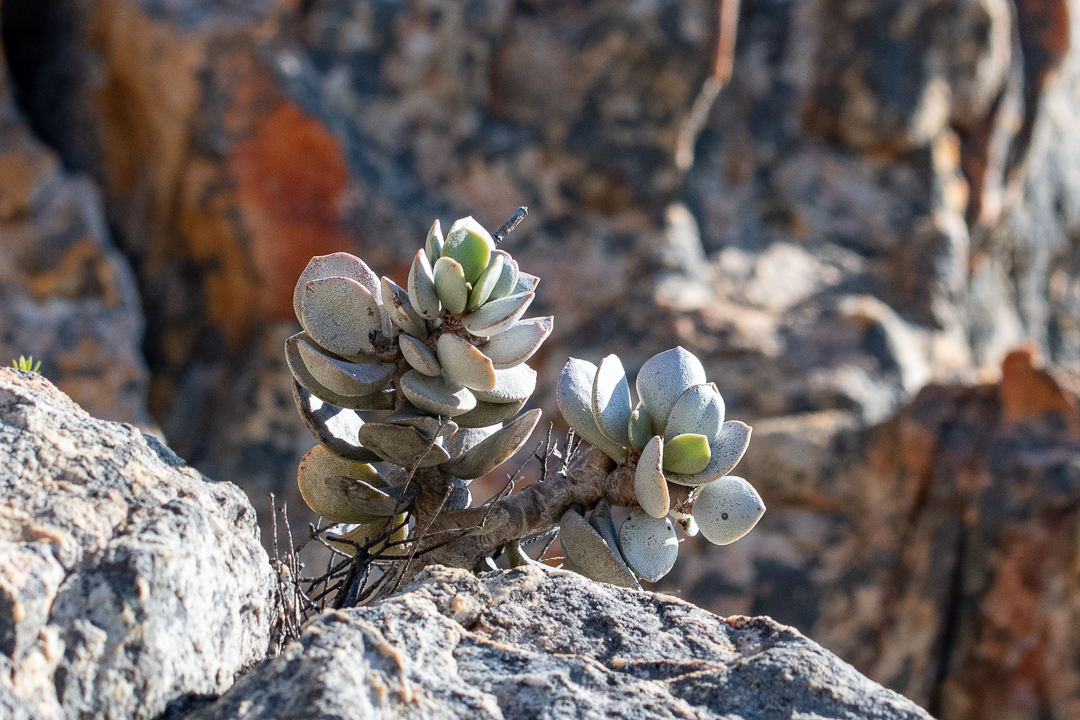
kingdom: Plantae
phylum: Tracheophyta
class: Magnoliopsida
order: Saxifragales
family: Crassulaceae
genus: Adromischus
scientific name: Adromischus hemisphaericus
